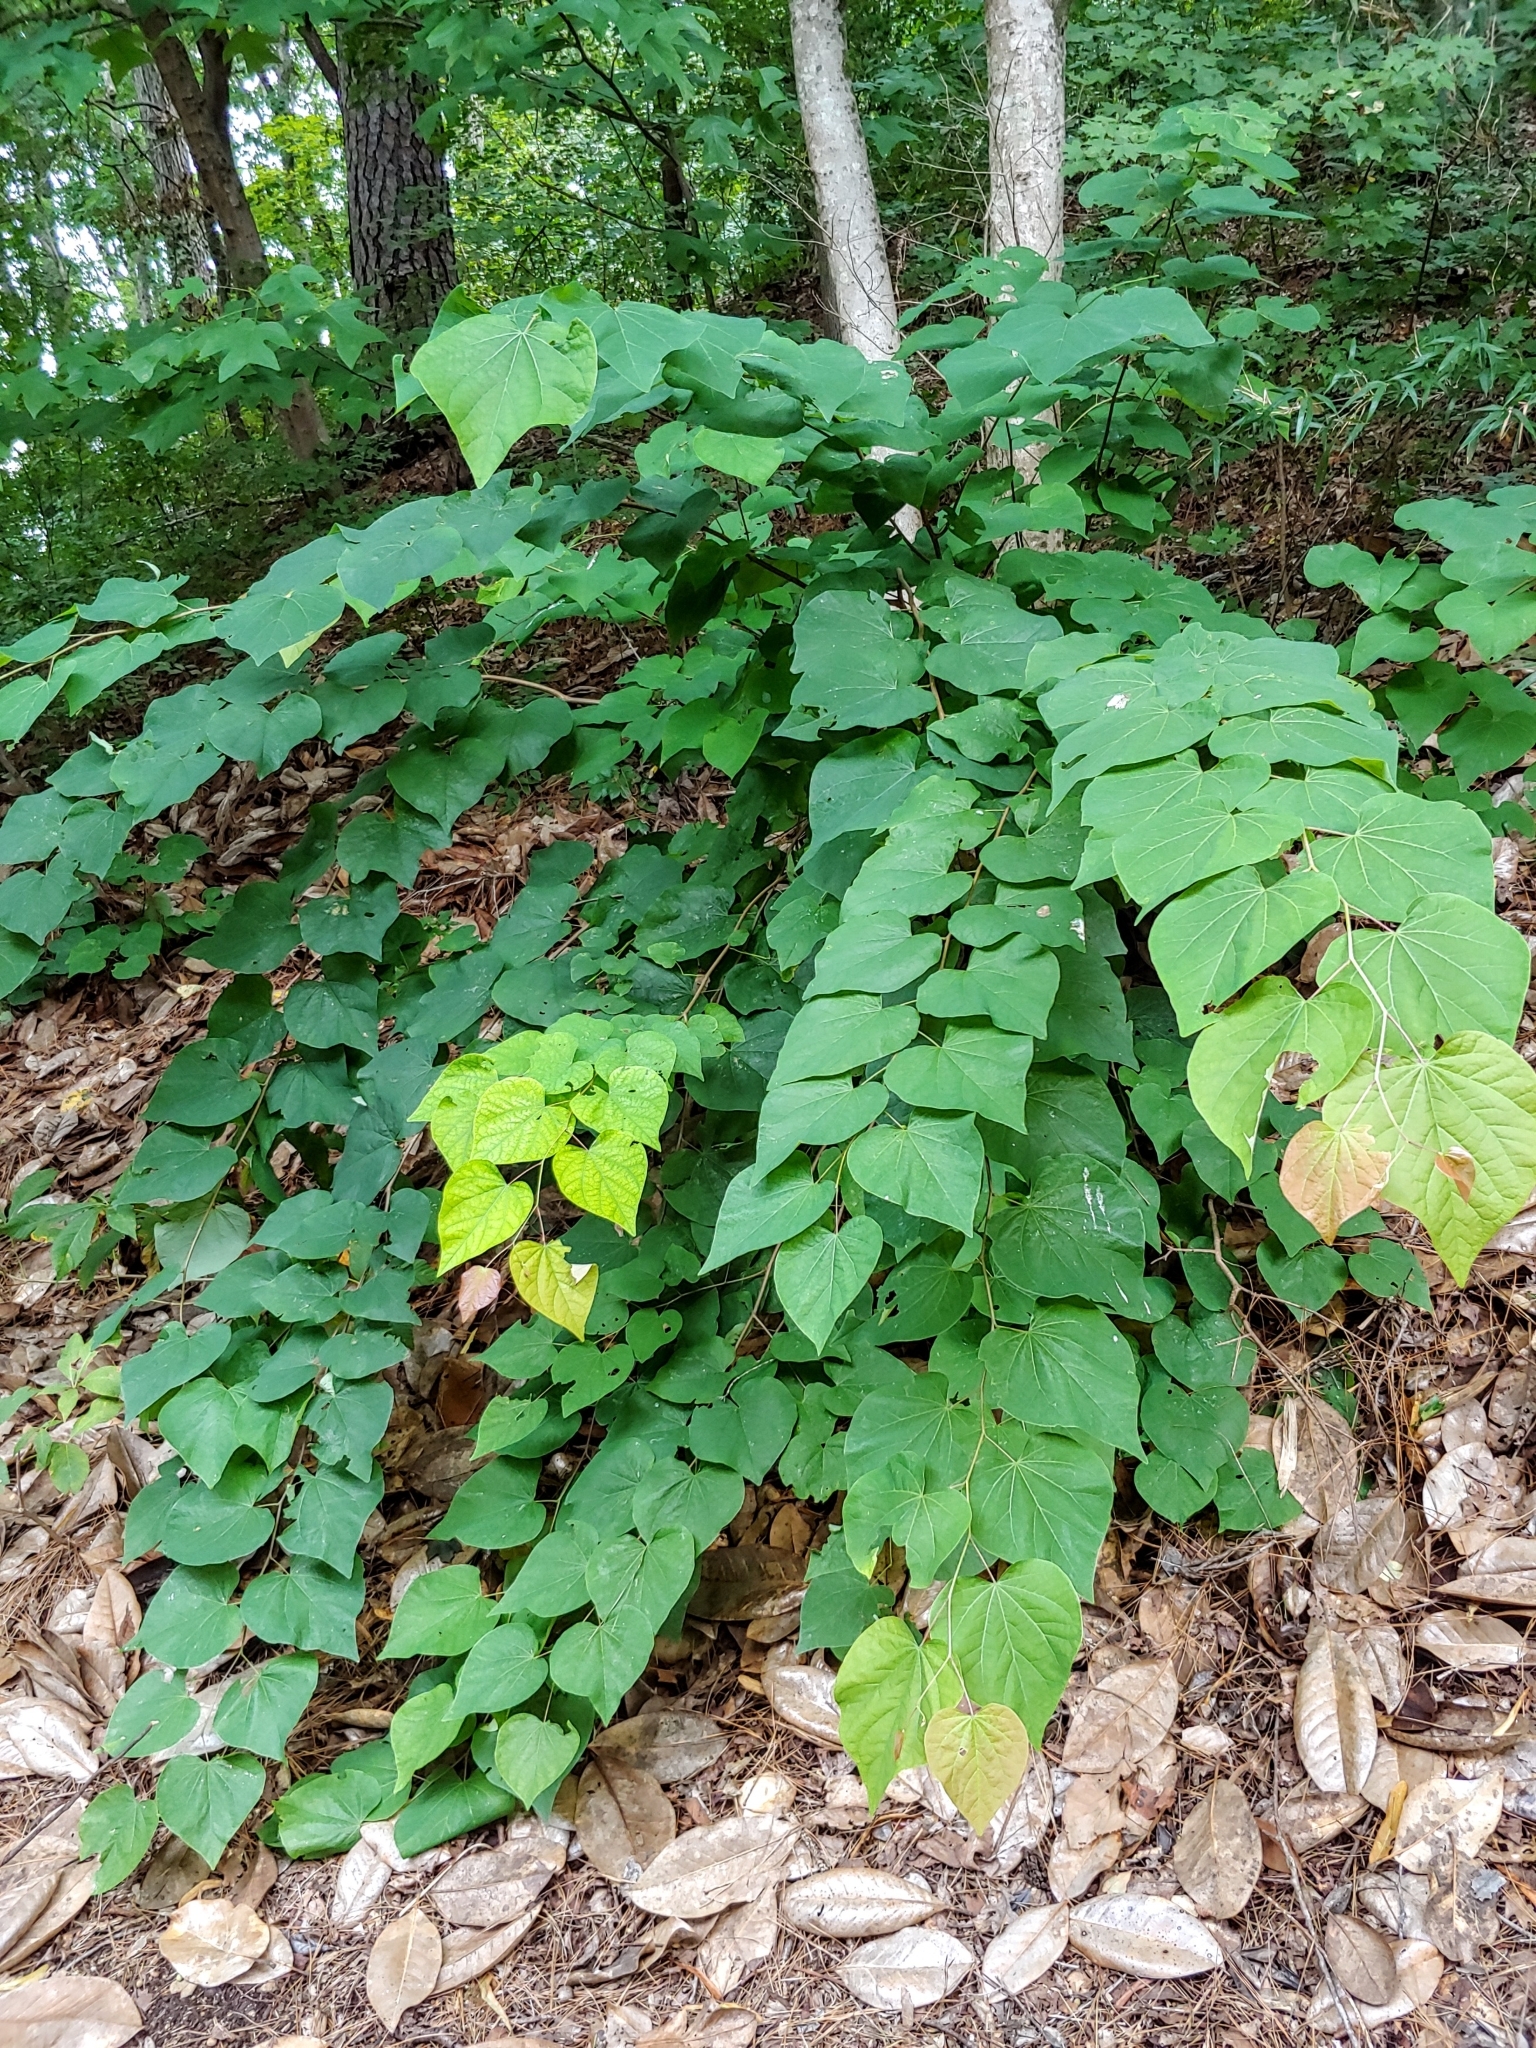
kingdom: Plantae
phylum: Tracheophyta
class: Magnoliopsida
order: Fabales
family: Fabaceae
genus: Cercis
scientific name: Cercis canadensis
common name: Eastern redbud
